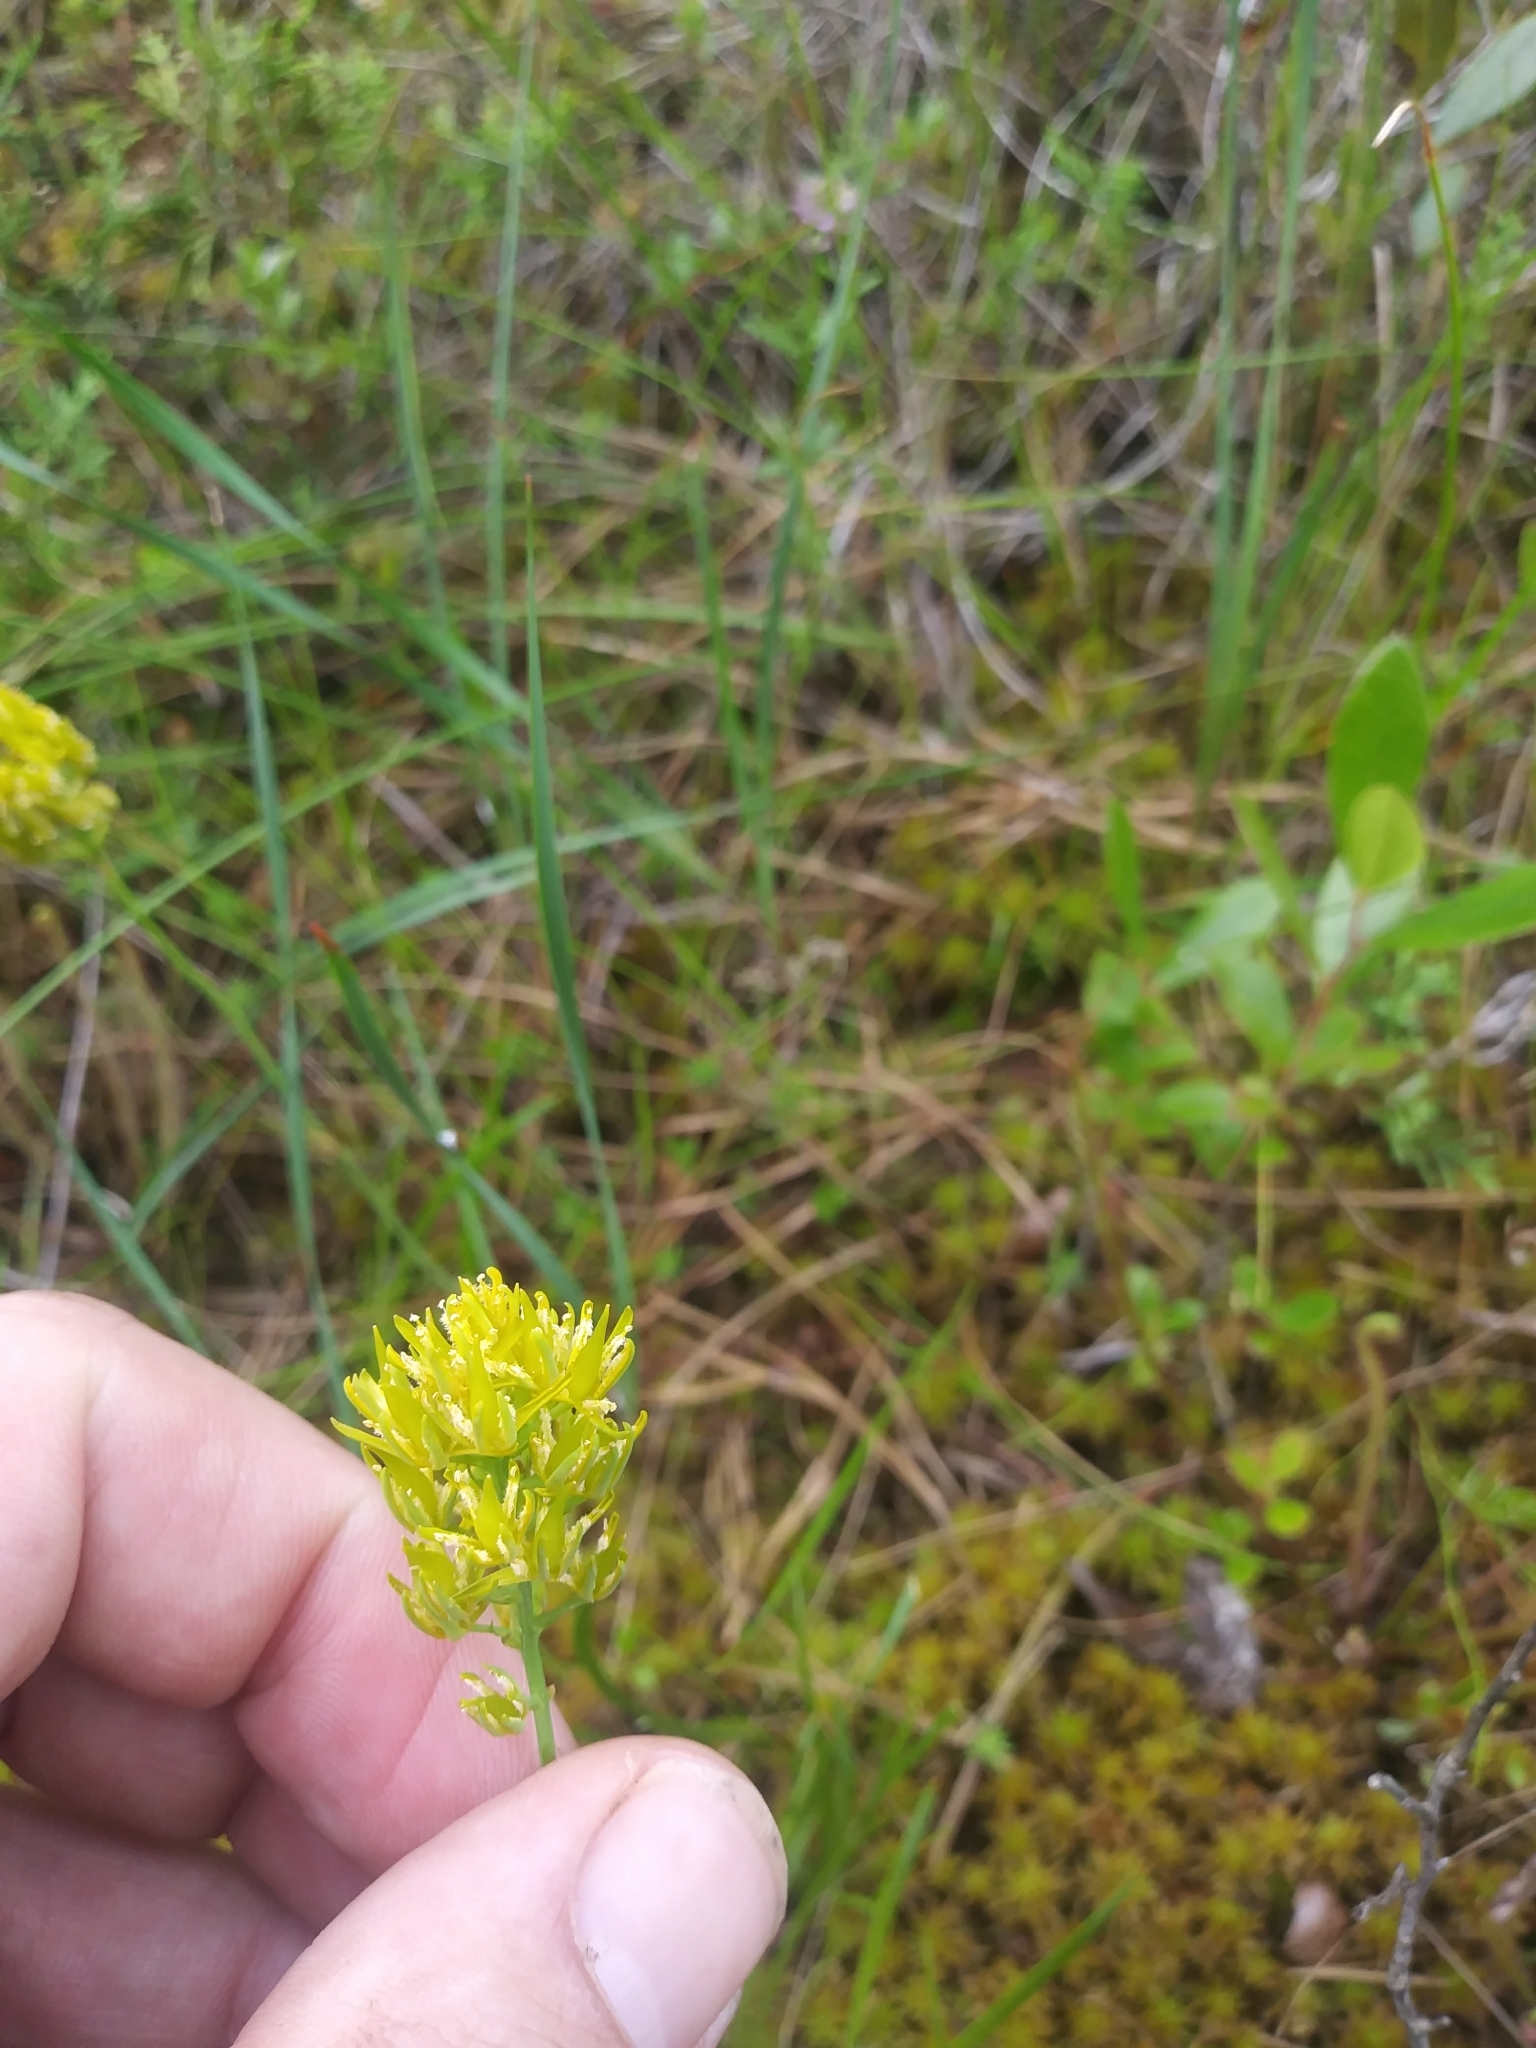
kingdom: Plantae
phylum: Tracheophyta
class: Liliopsida
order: Dioscoreales
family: Nartheciaceae
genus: Narthecium
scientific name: Narthecium americanum
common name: Bog-asphodel
